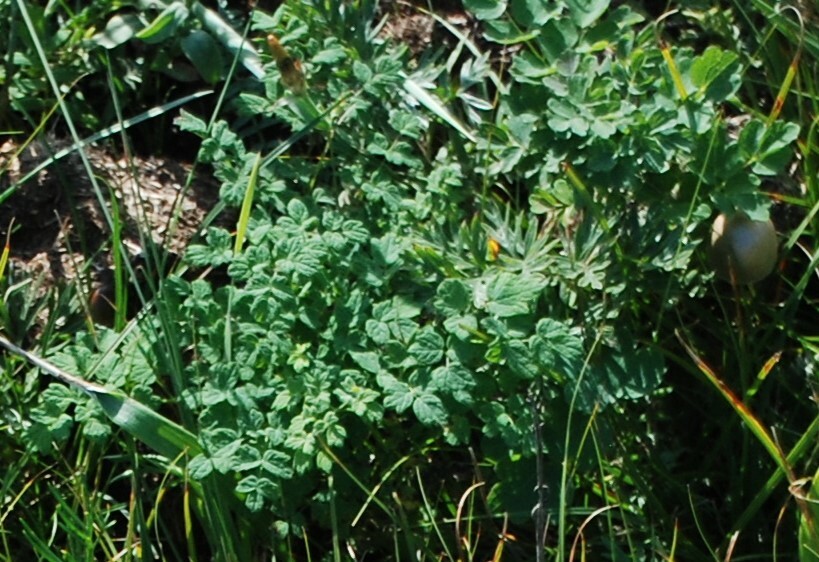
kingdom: Plantae
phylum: Tracheophyta
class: Magnoliopsida
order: Ranunculales
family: Ranunculaceae
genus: Thalictrum
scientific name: Thalictrum foetidum
